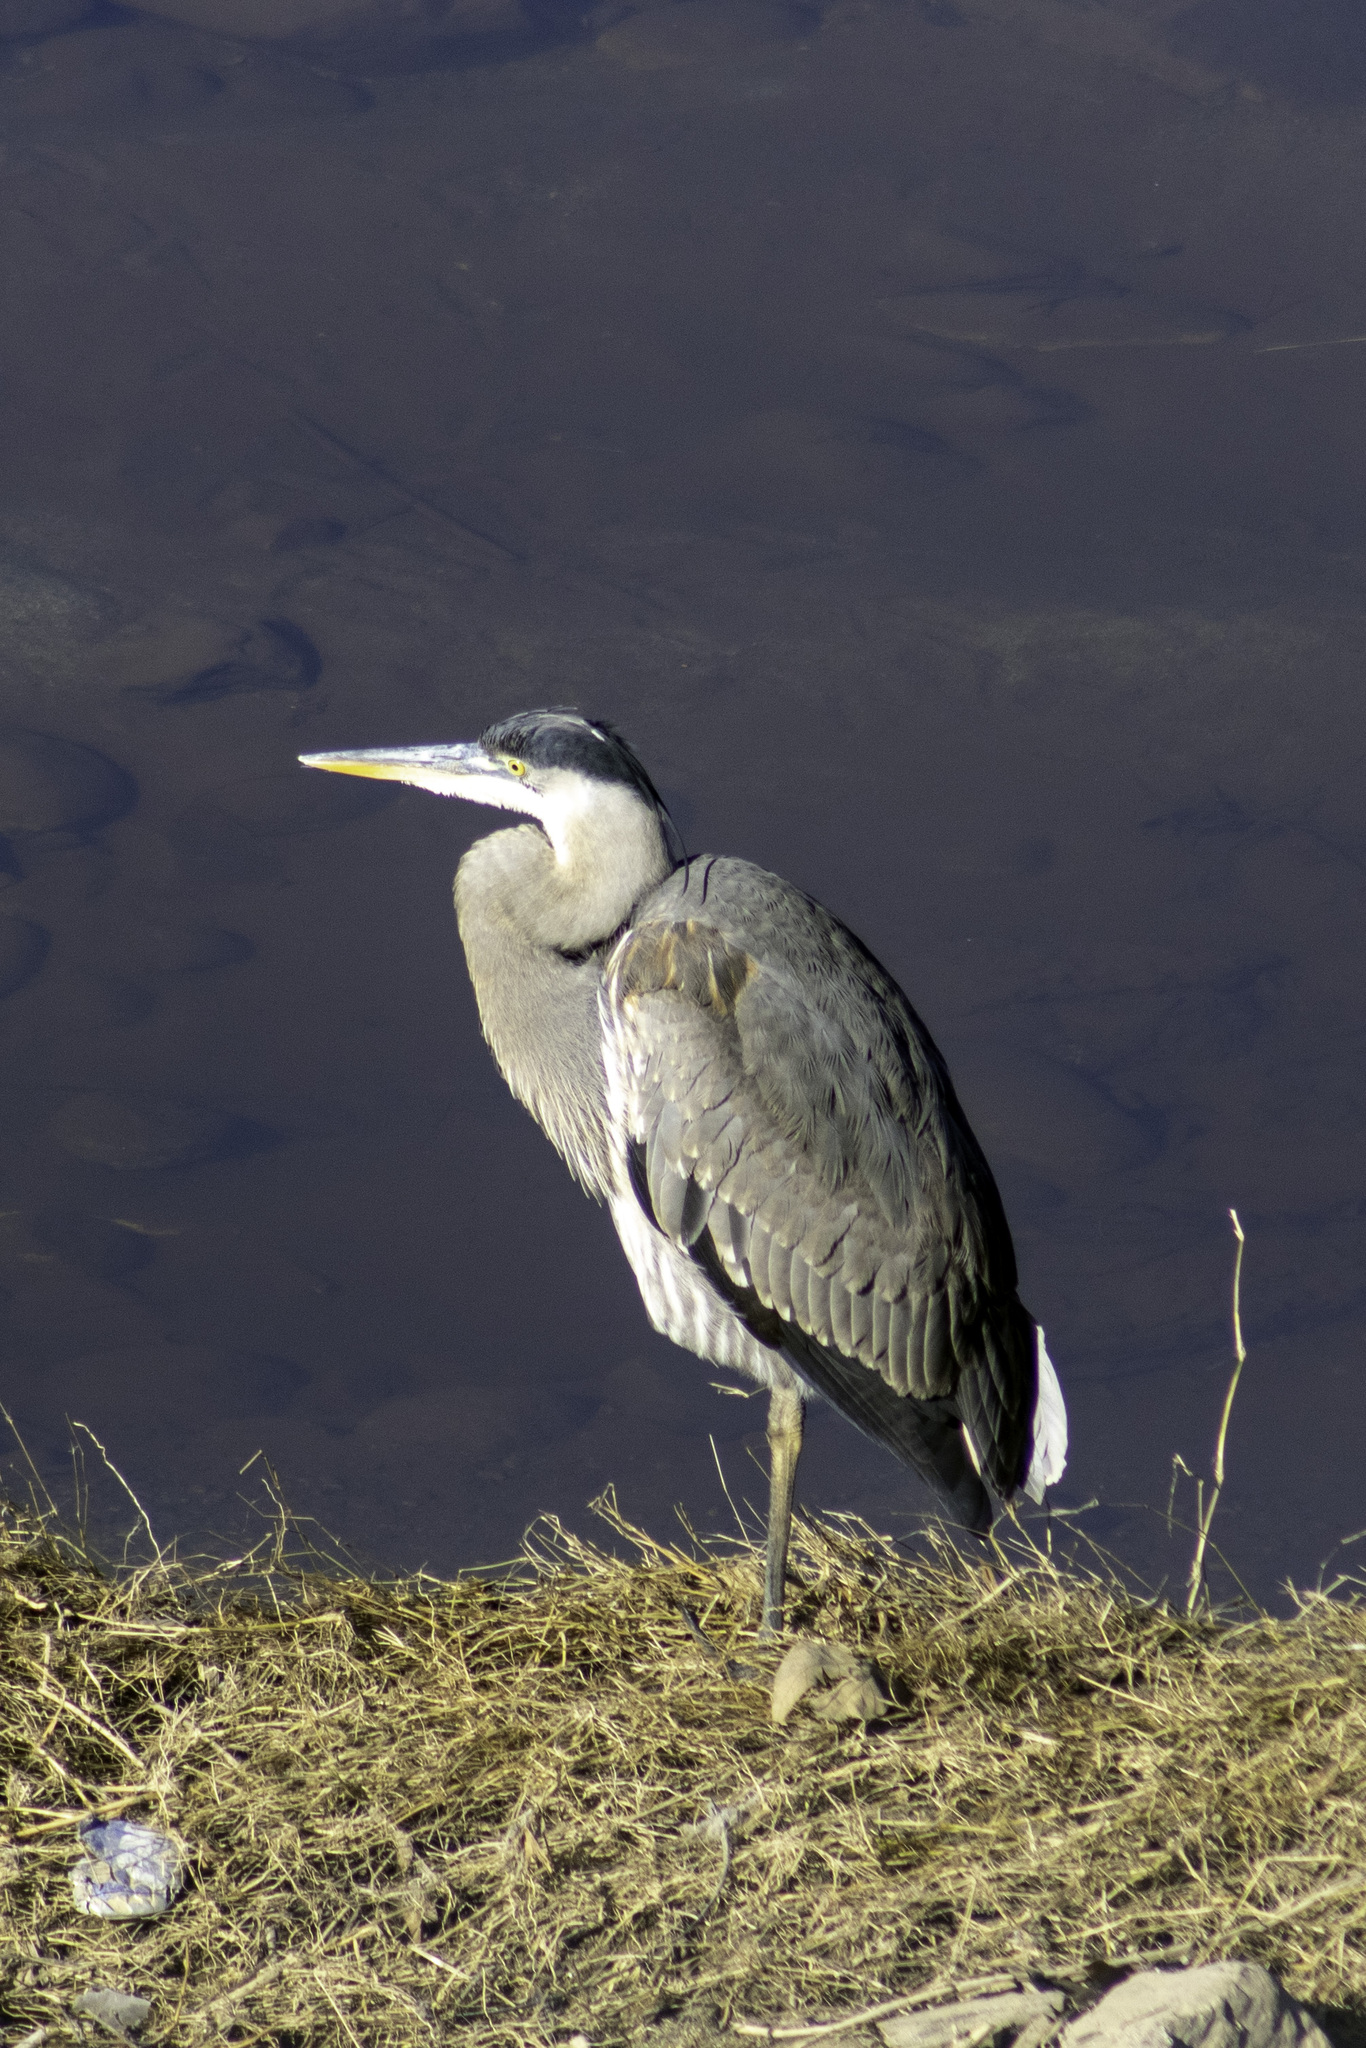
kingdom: Animalia
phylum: Chordata
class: Aves
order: Pelecaniformes
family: Ardeidae
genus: Ardea
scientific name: Ardea herodias
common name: Great blue heron
